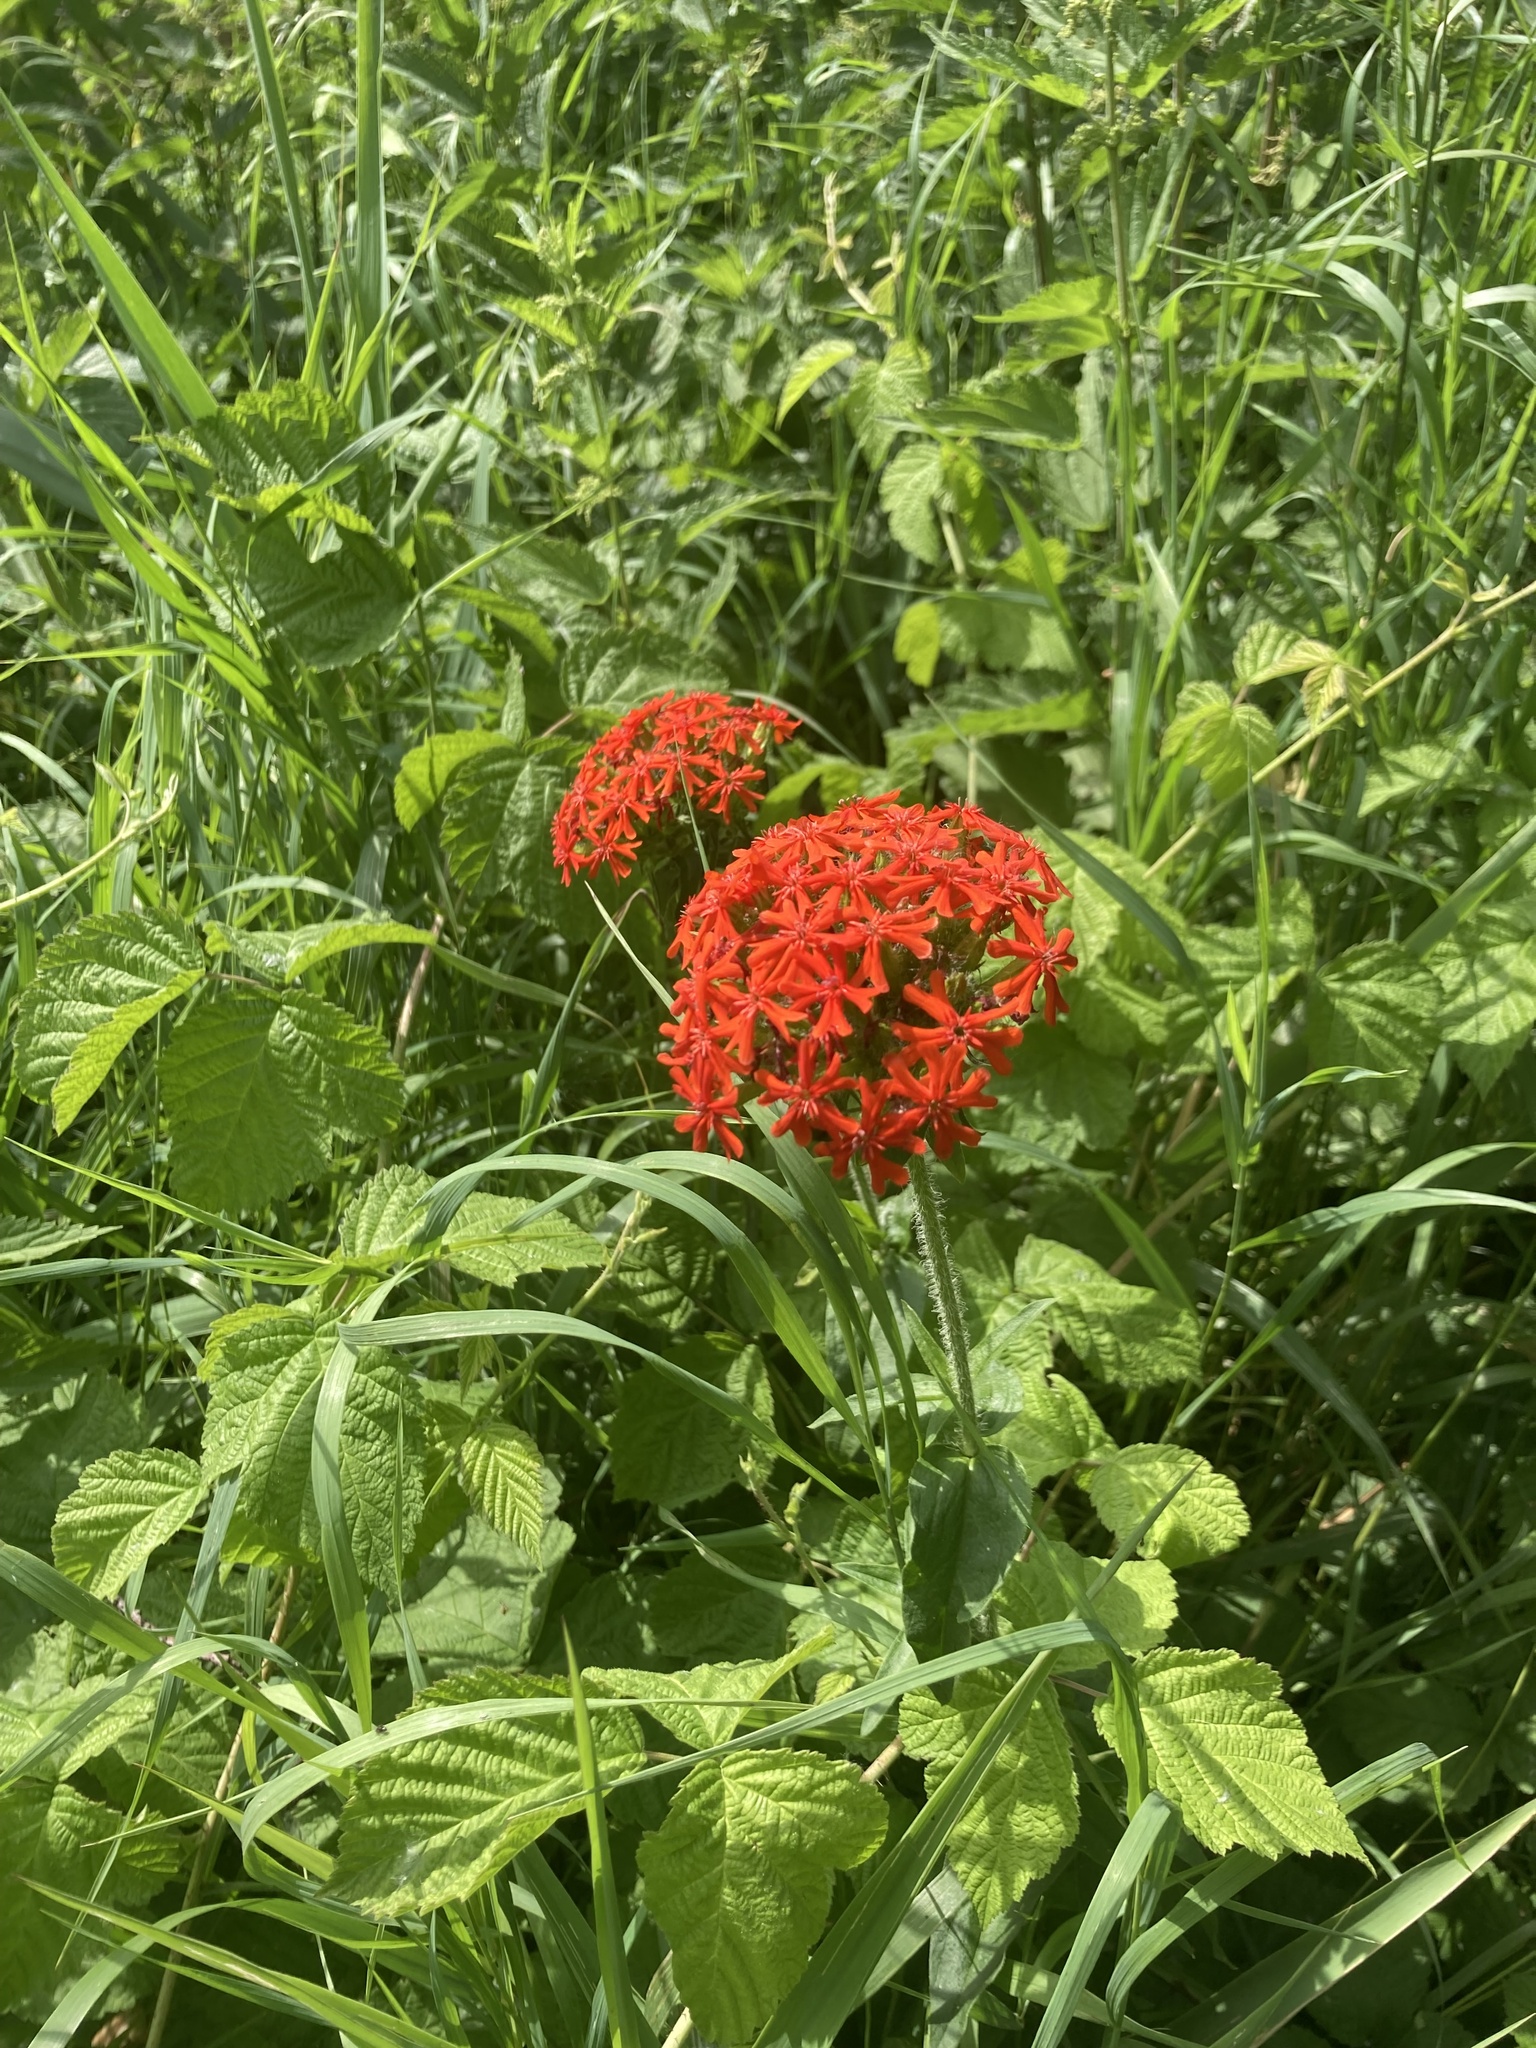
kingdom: Plantae
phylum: Tracheophyta
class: Magnoliopsida
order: Caryophyllales
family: Caryophyllaceae
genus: Silene
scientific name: Silene chalcedonica
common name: Maltese-cross
